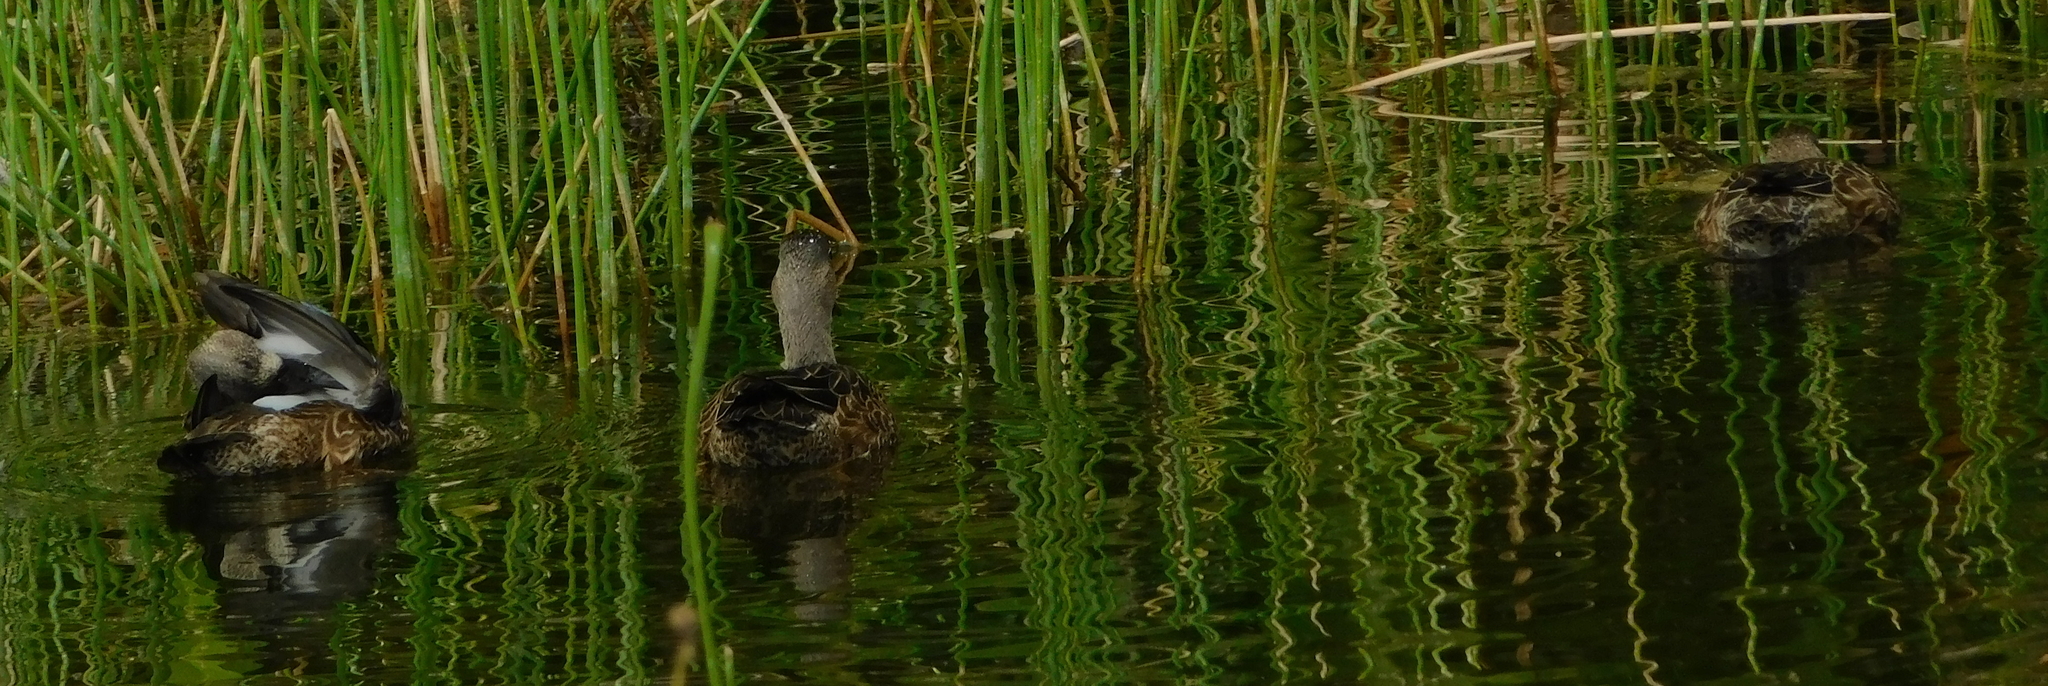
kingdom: Animalia
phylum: Chordata
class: Aves
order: Anseriformes
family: Anatidae
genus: Spatula
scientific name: Spatula discors
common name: Blue-winged teal
